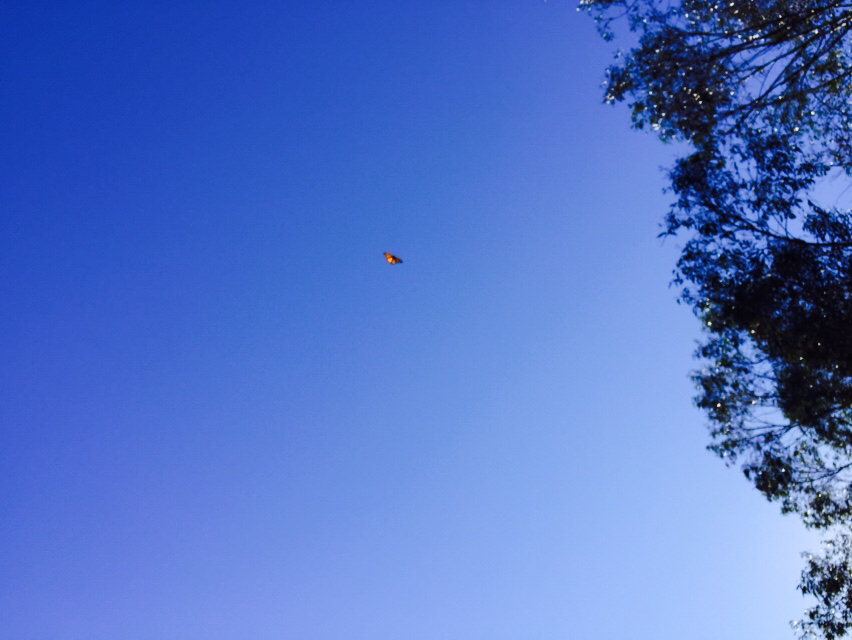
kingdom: Animalia
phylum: Arthropoda
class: Insecta
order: Lepidoptera
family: Nymphalidae
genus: Danaus
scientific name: Danaus plexippus
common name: Monarch
